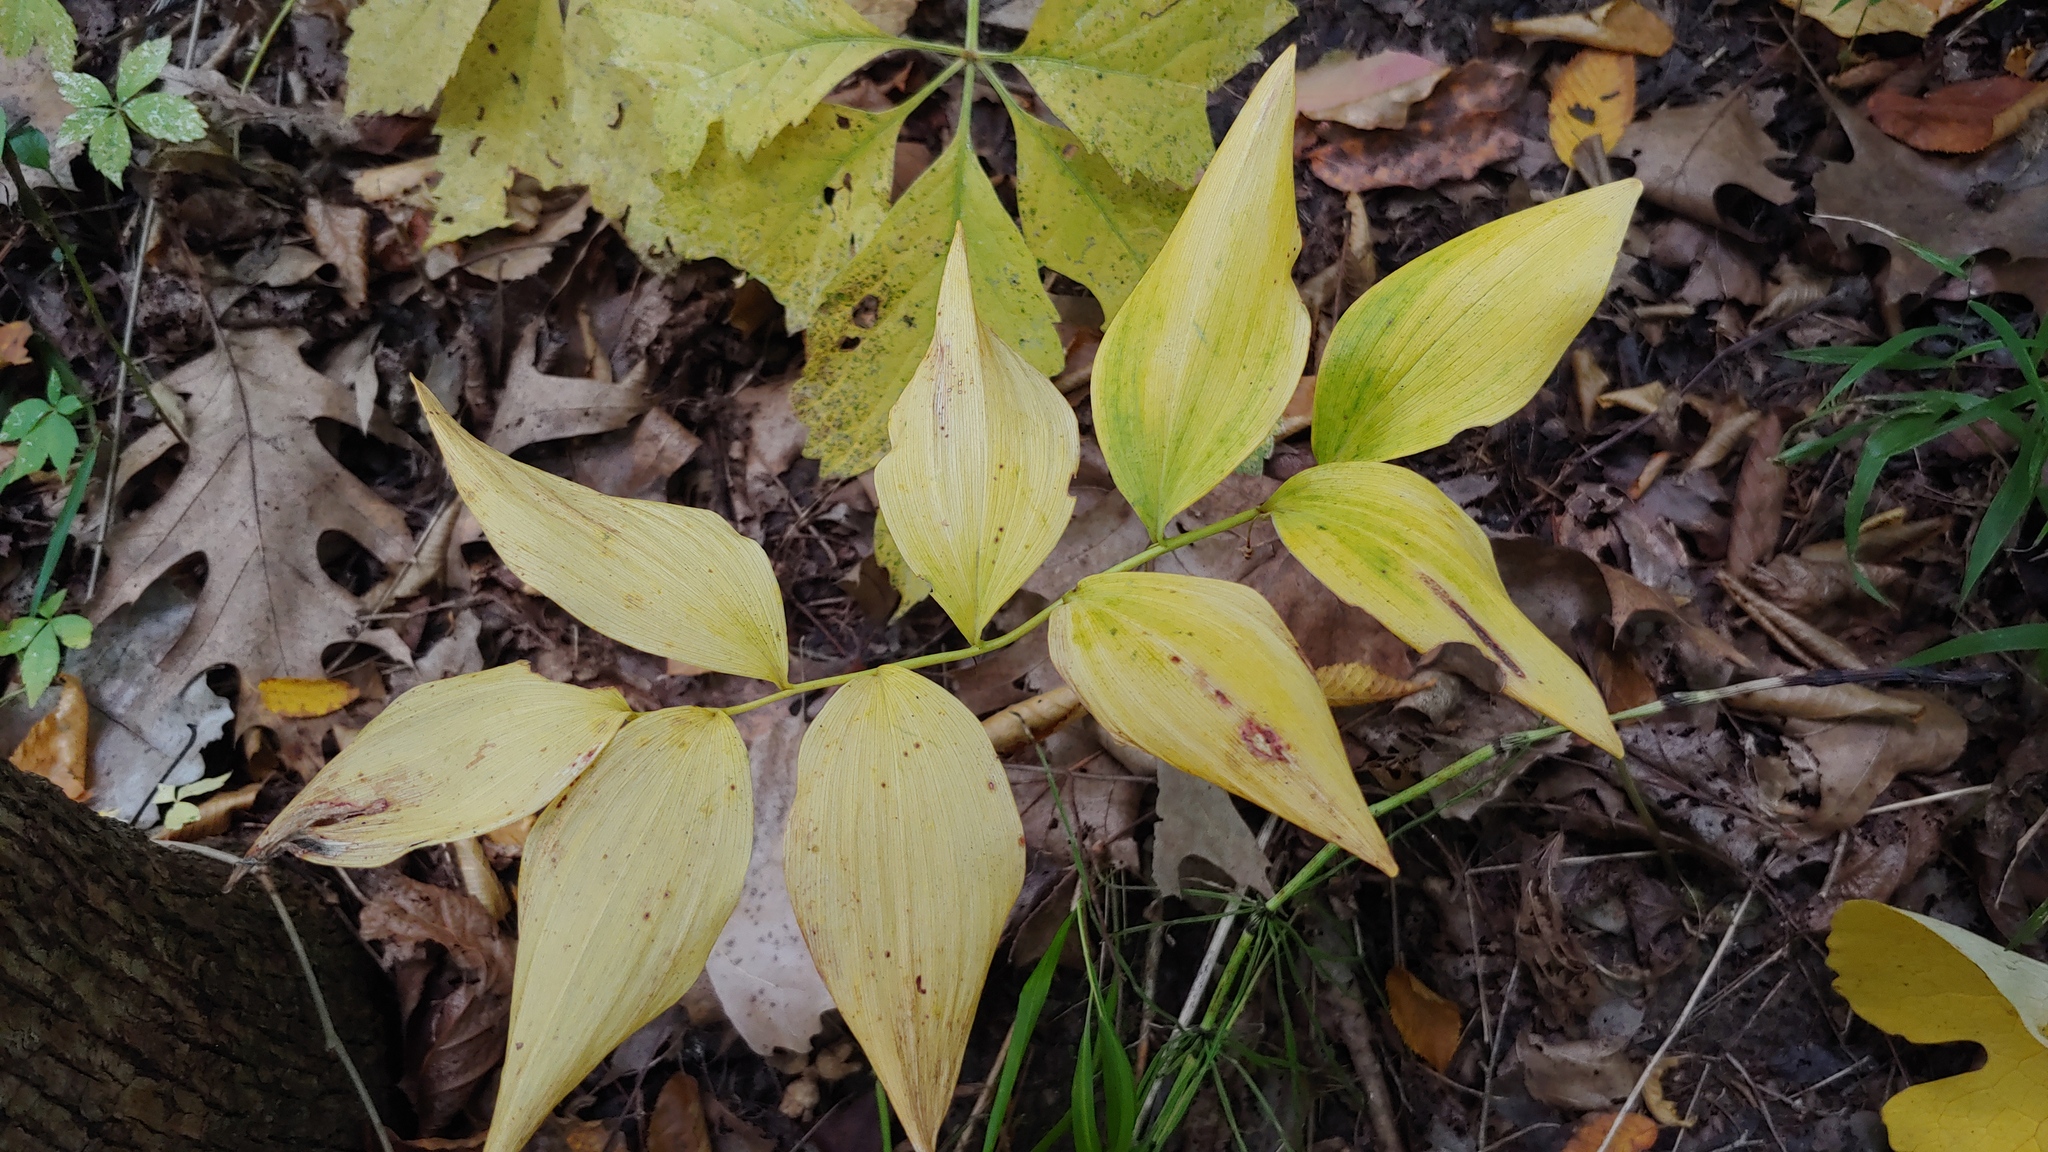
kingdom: Plantae
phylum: Tracheophyta
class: Liliopsida
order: Asparagales
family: Asparagaceae
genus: Polygonatum
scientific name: Polygonatum pubescens
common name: Downy solomon's seal
